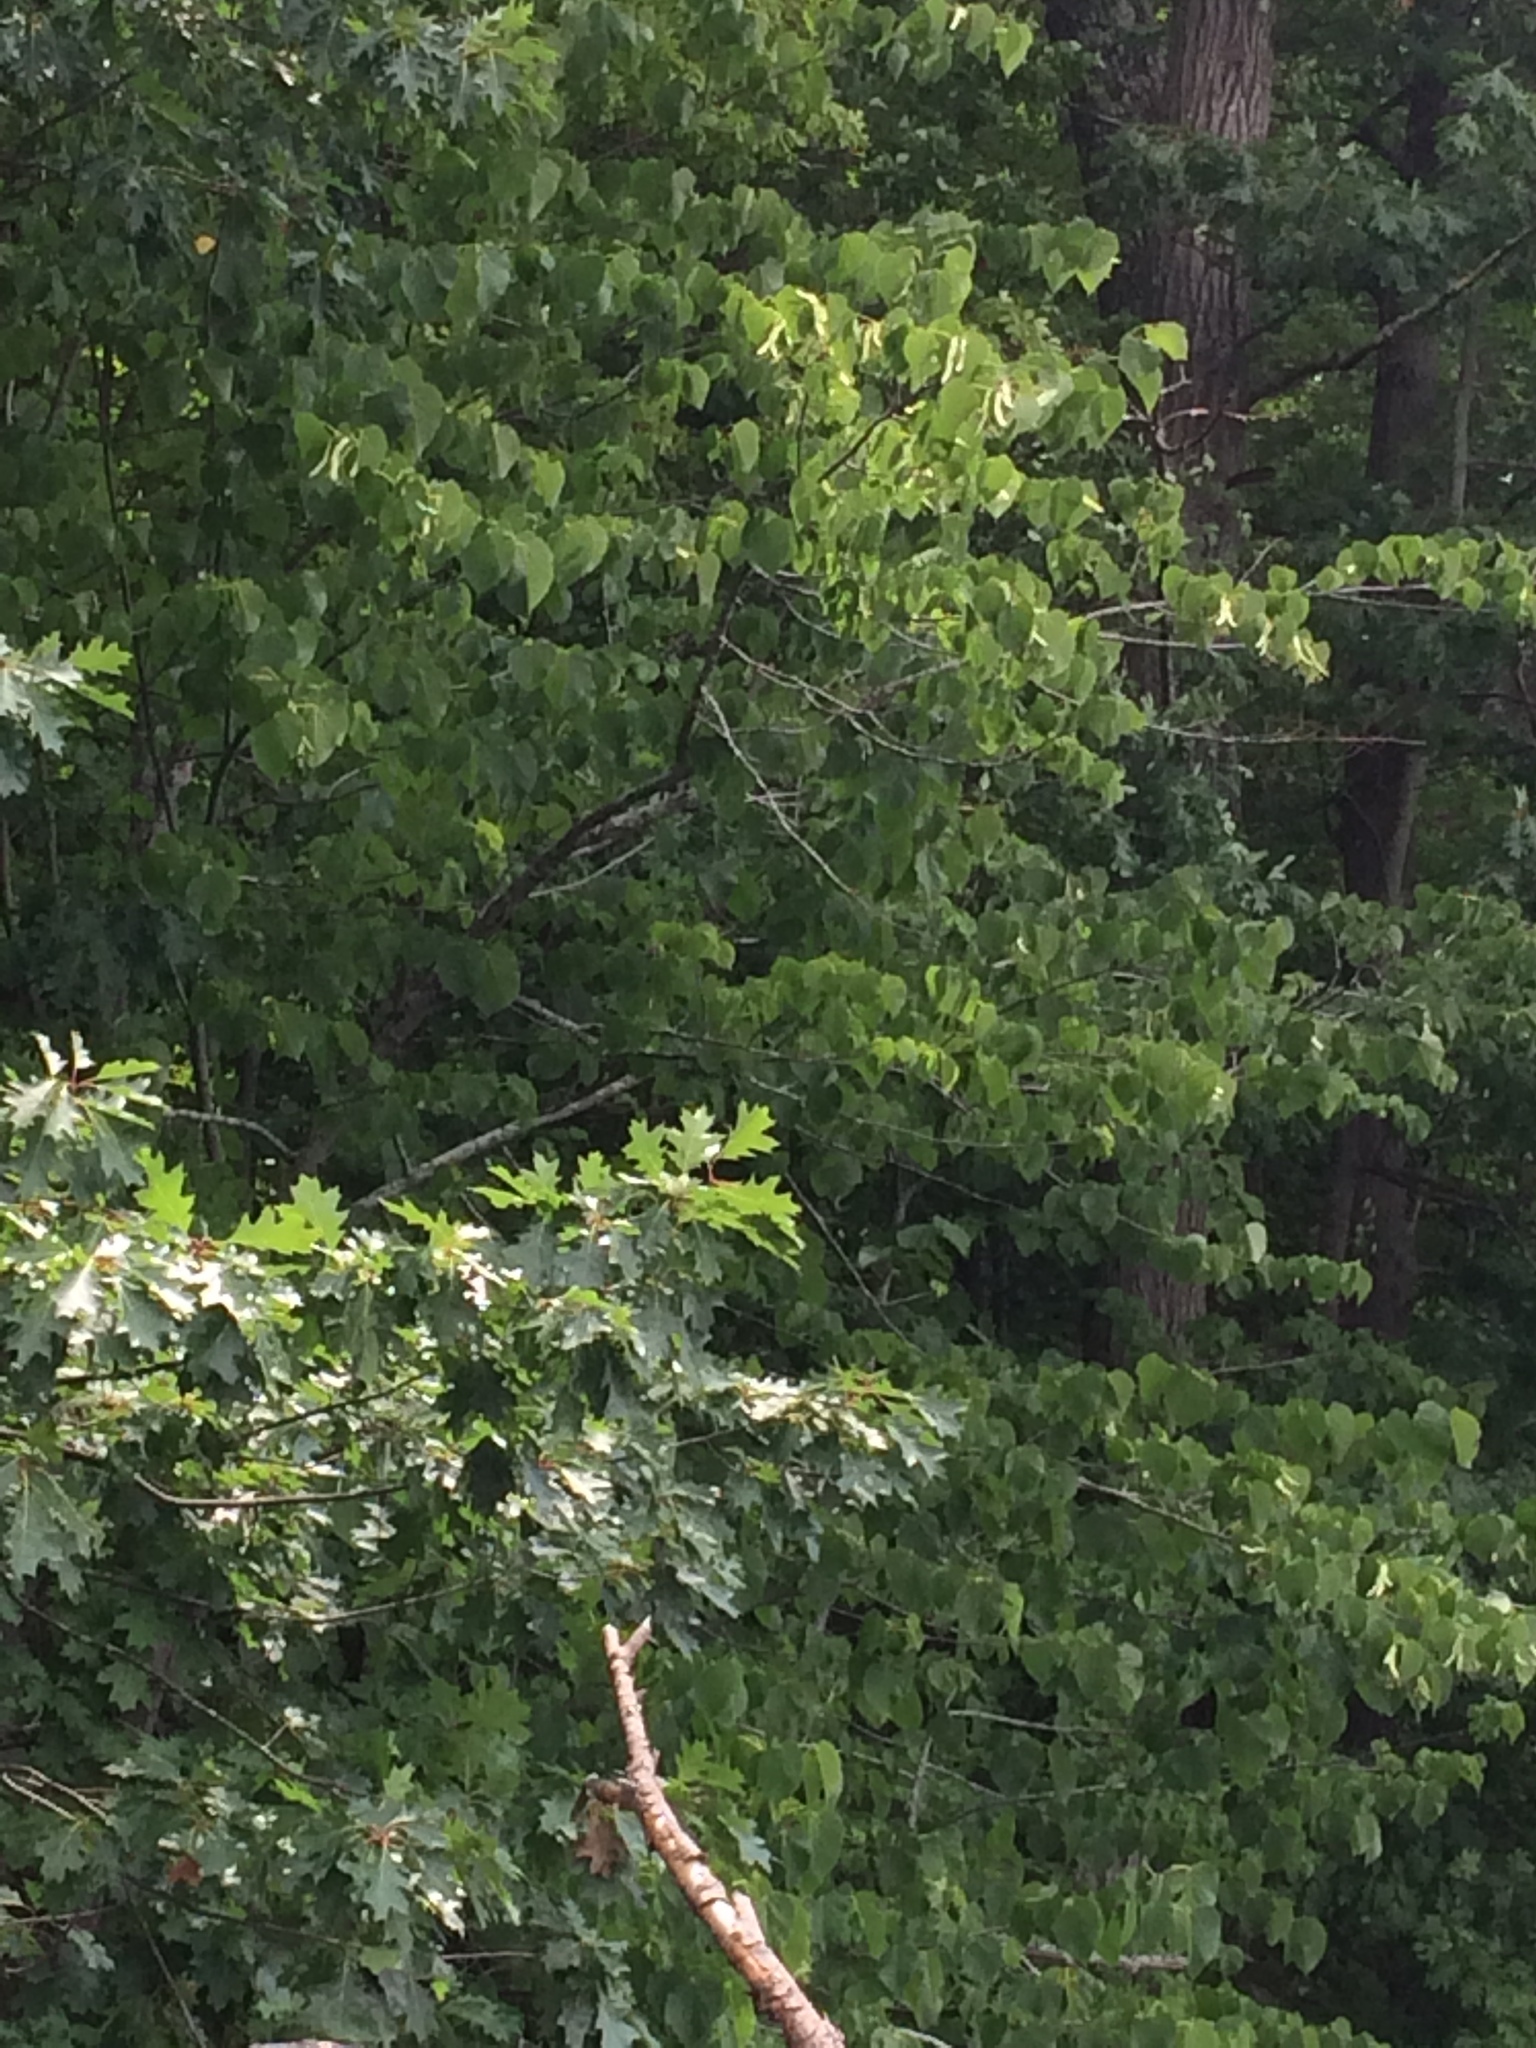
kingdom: Plantae
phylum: Tracheophyta
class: Magnoliopsida
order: Malvales
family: Malvaceae
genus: Tilia
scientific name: Tilia americana
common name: Basswood
